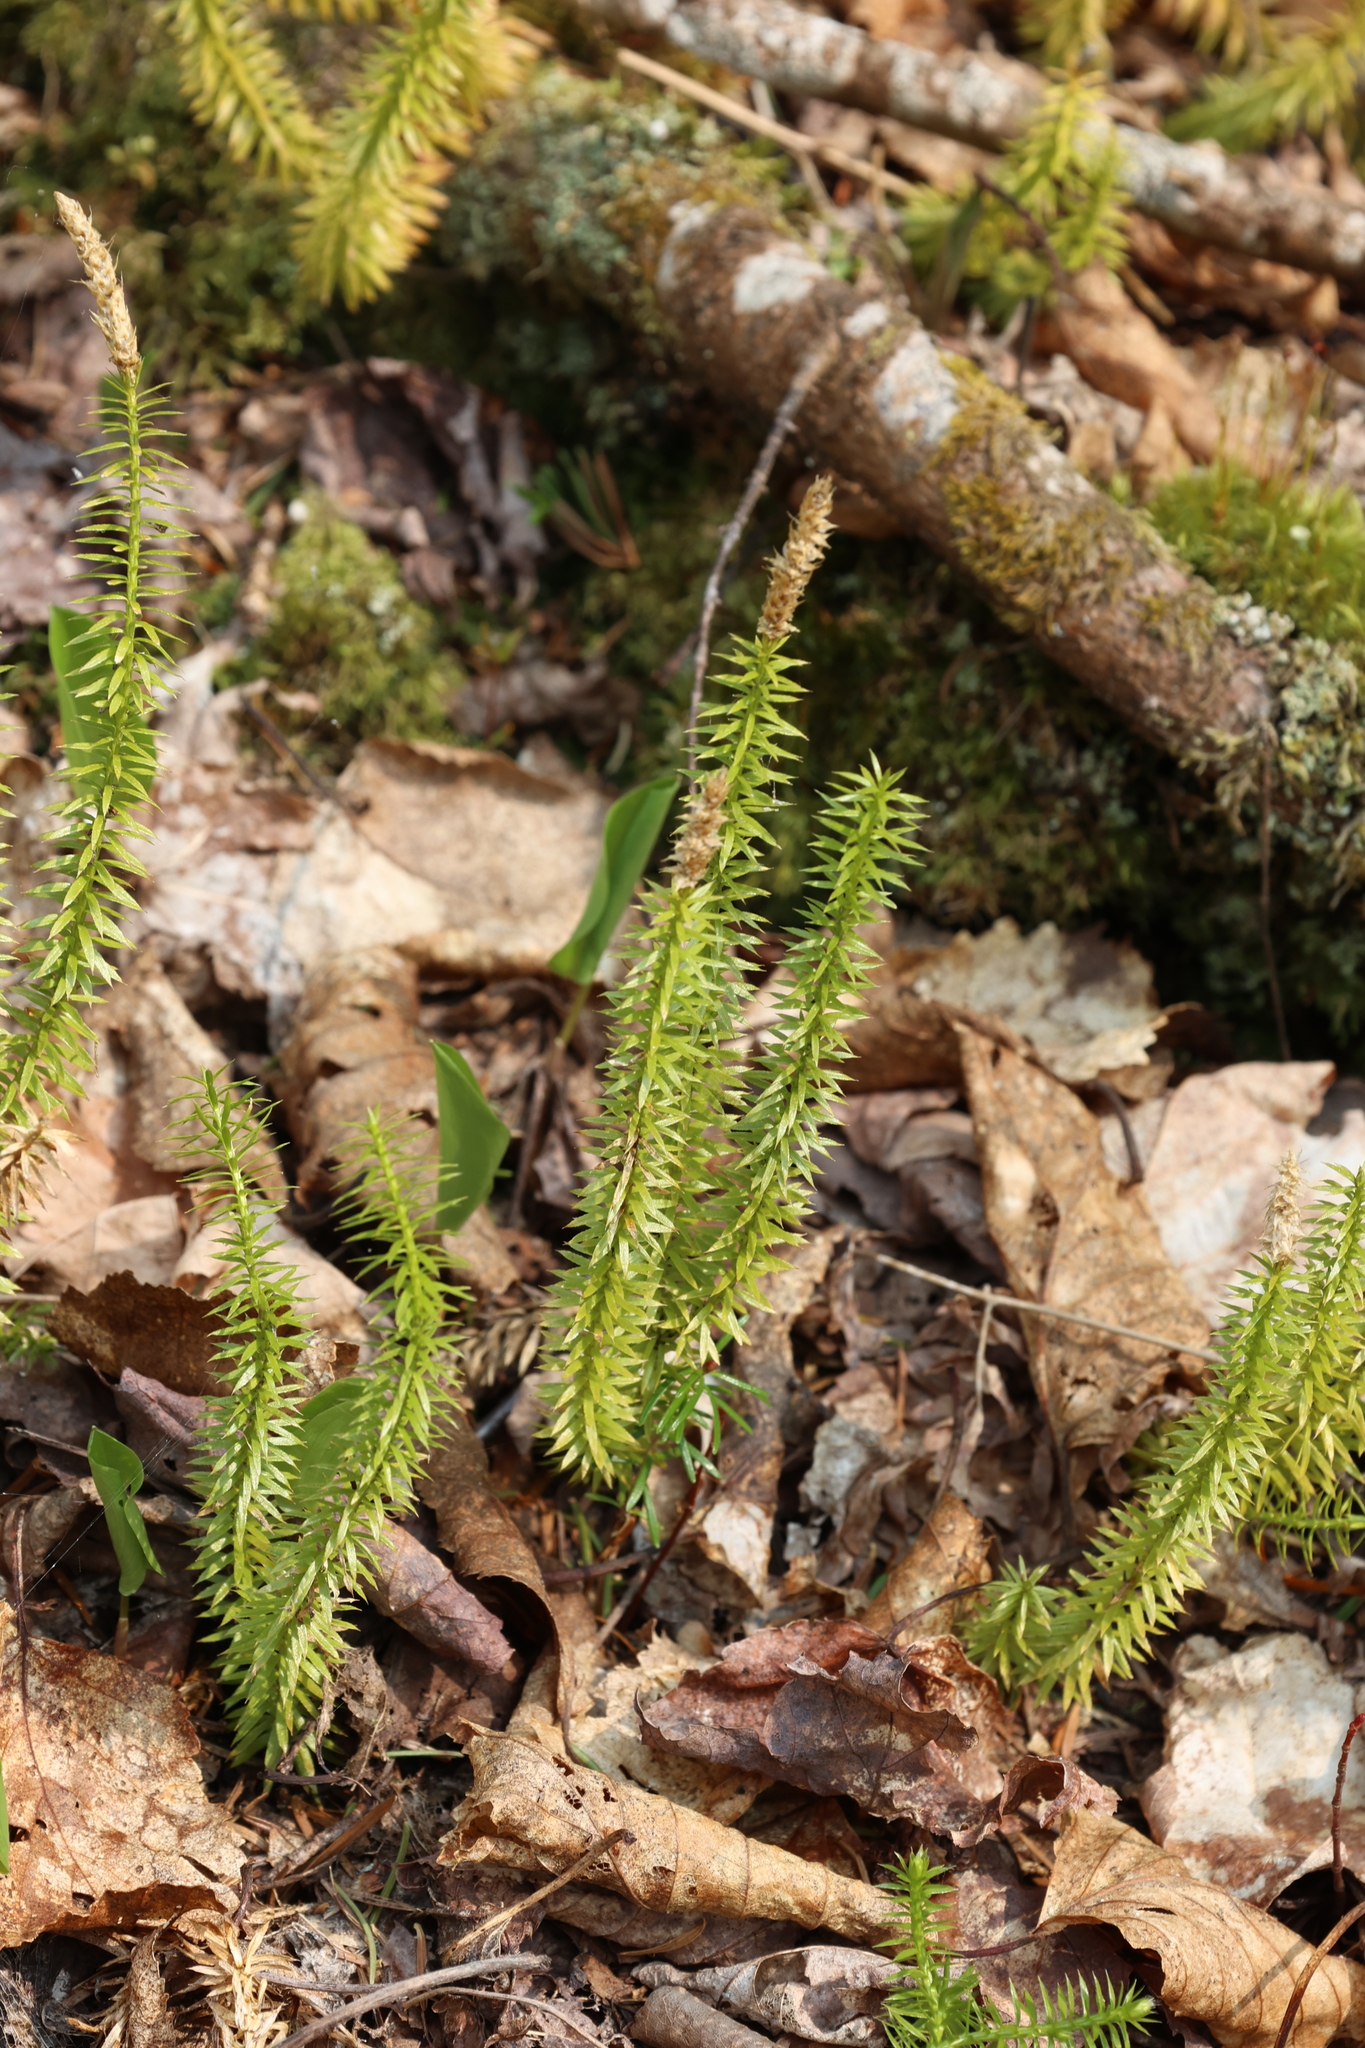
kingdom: Plantae
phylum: Tracheophyta
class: Lycopodiopsida
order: Lycopodiales
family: Lycopodiaceae
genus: Spinulum
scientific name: Spinulum annotinum
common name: Interrupted club-moss
